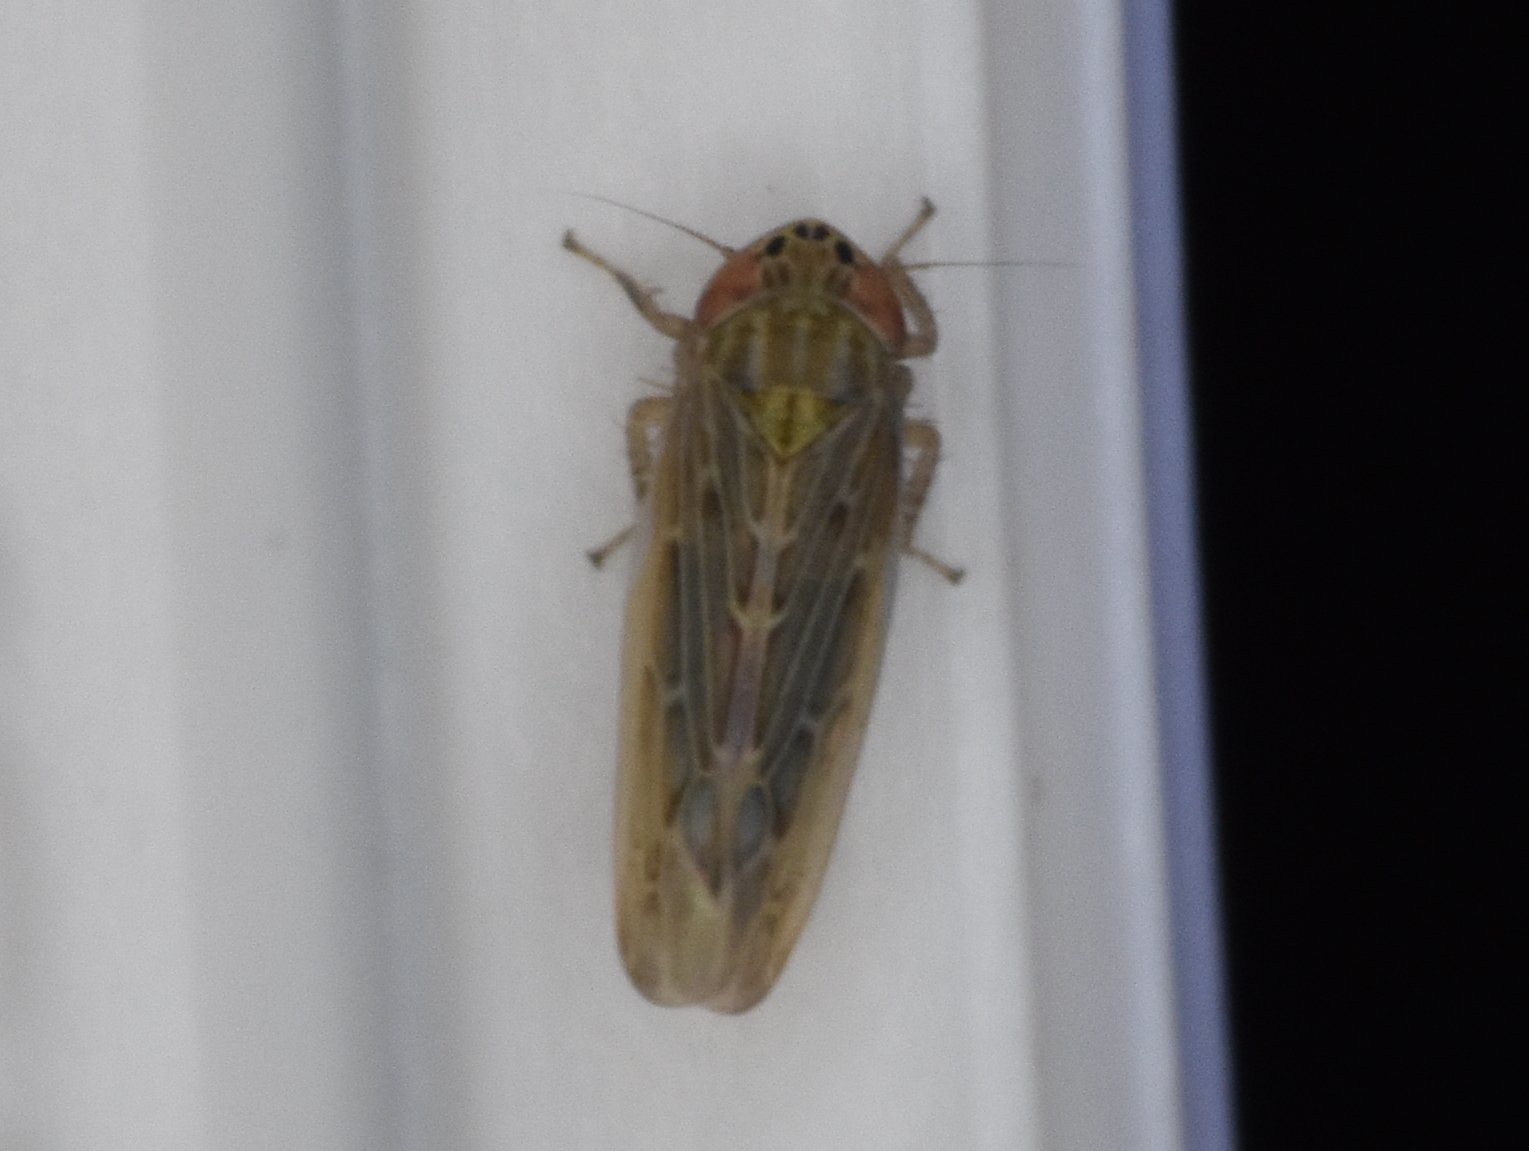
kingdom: Animalia
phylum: Arthropoda
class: Insecta
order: Hemiptera
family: Cicadellidae
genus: Graminella
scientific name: Graminella sonora
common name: Lesser lawn leafhopper
